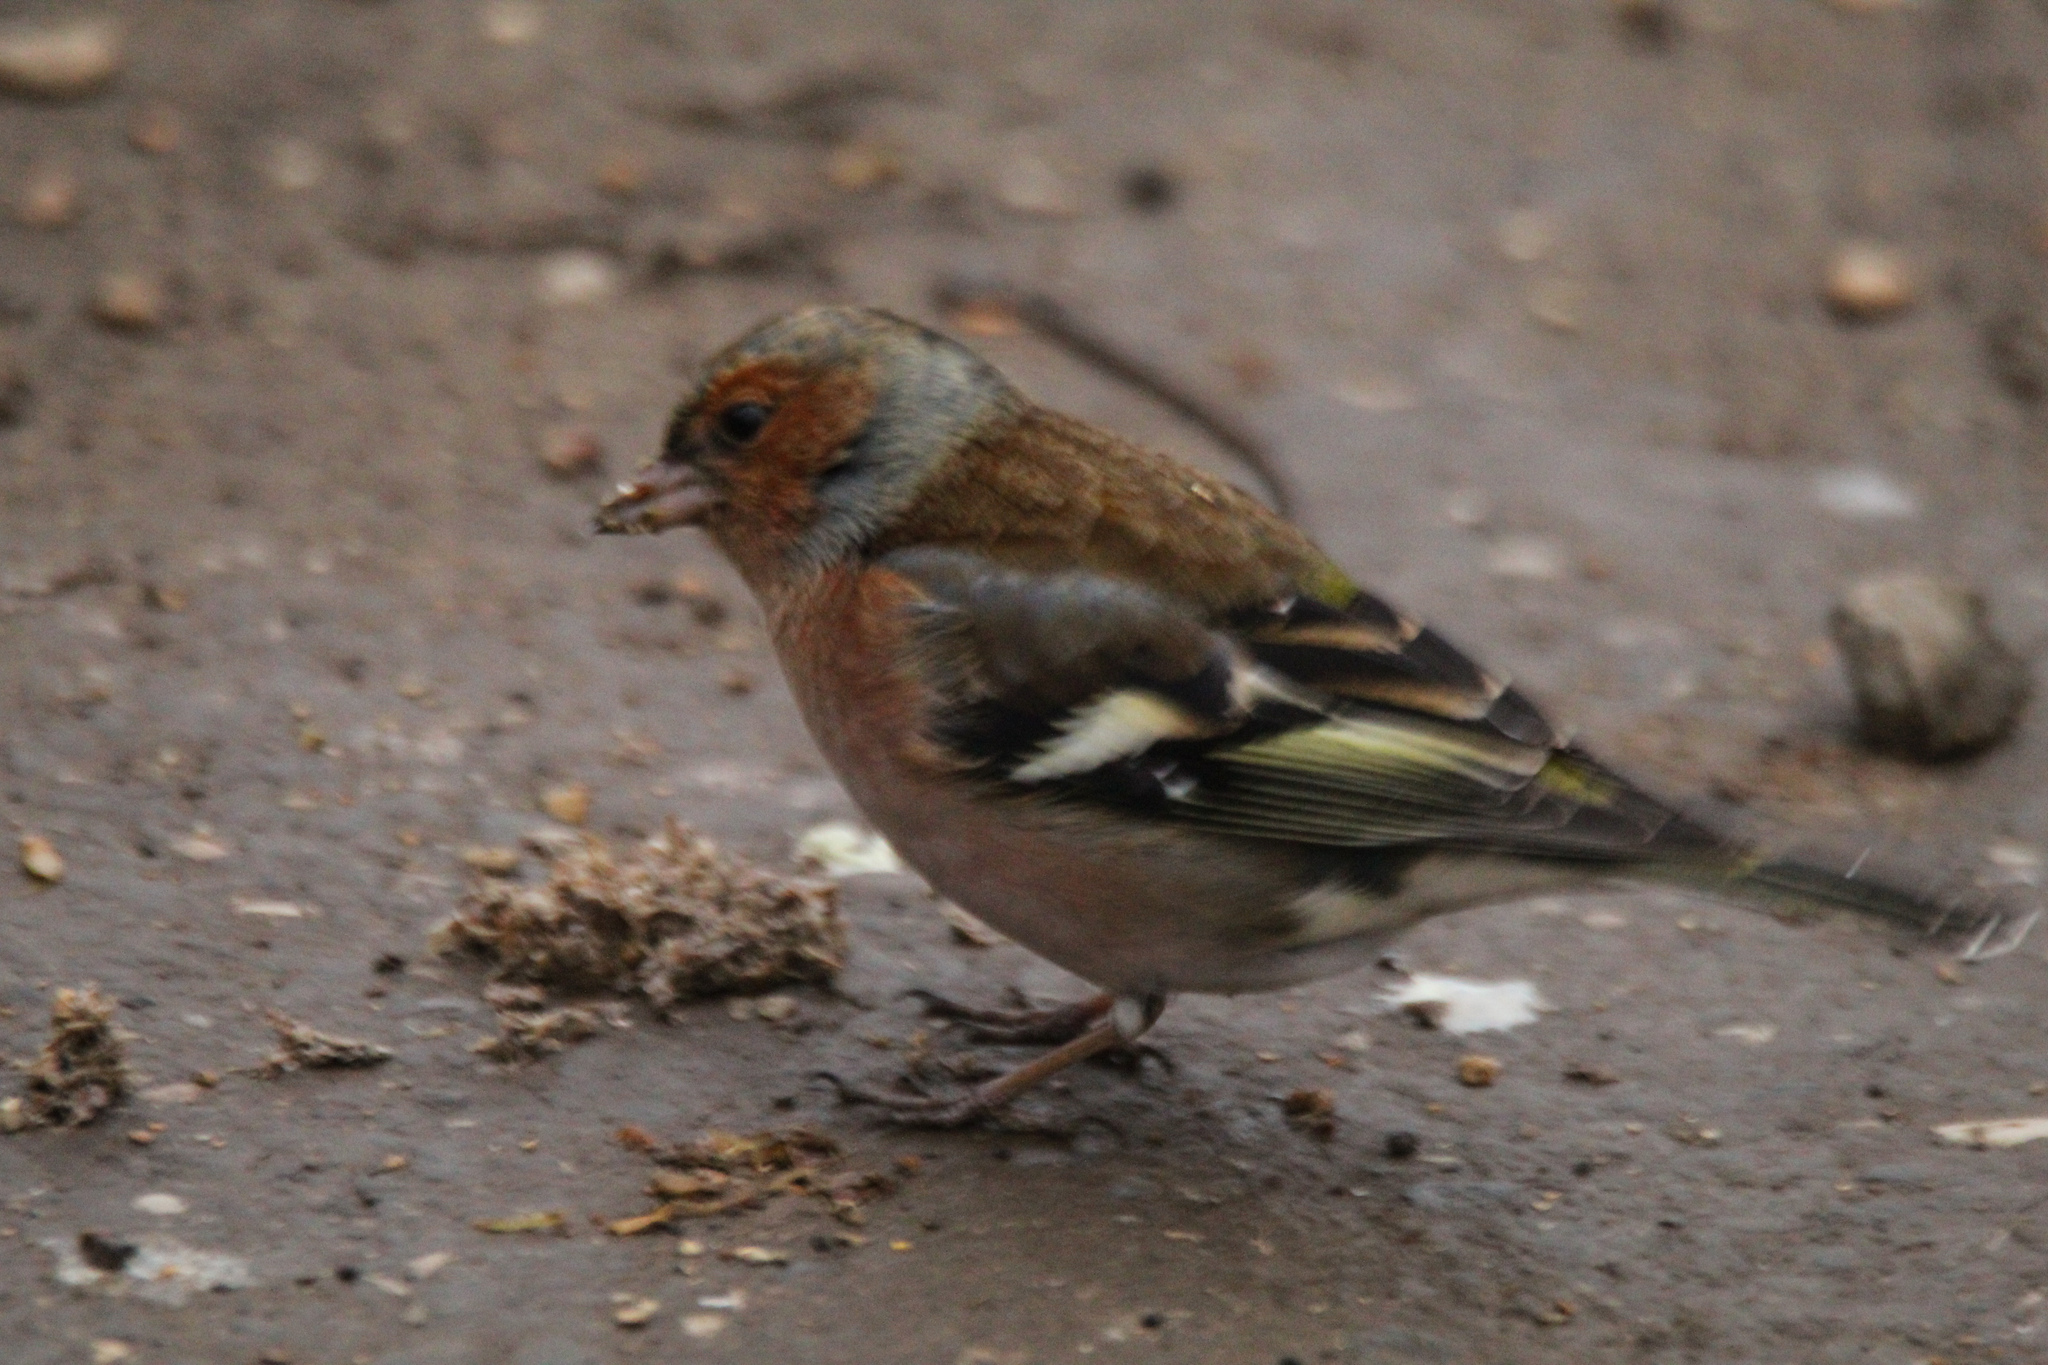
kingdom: Animalia
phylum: Chordata
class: Aves
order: Passeriformes
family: Fringillidae
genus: Fringilla
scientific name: Fringilla coelebs
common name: Common chaffinch
